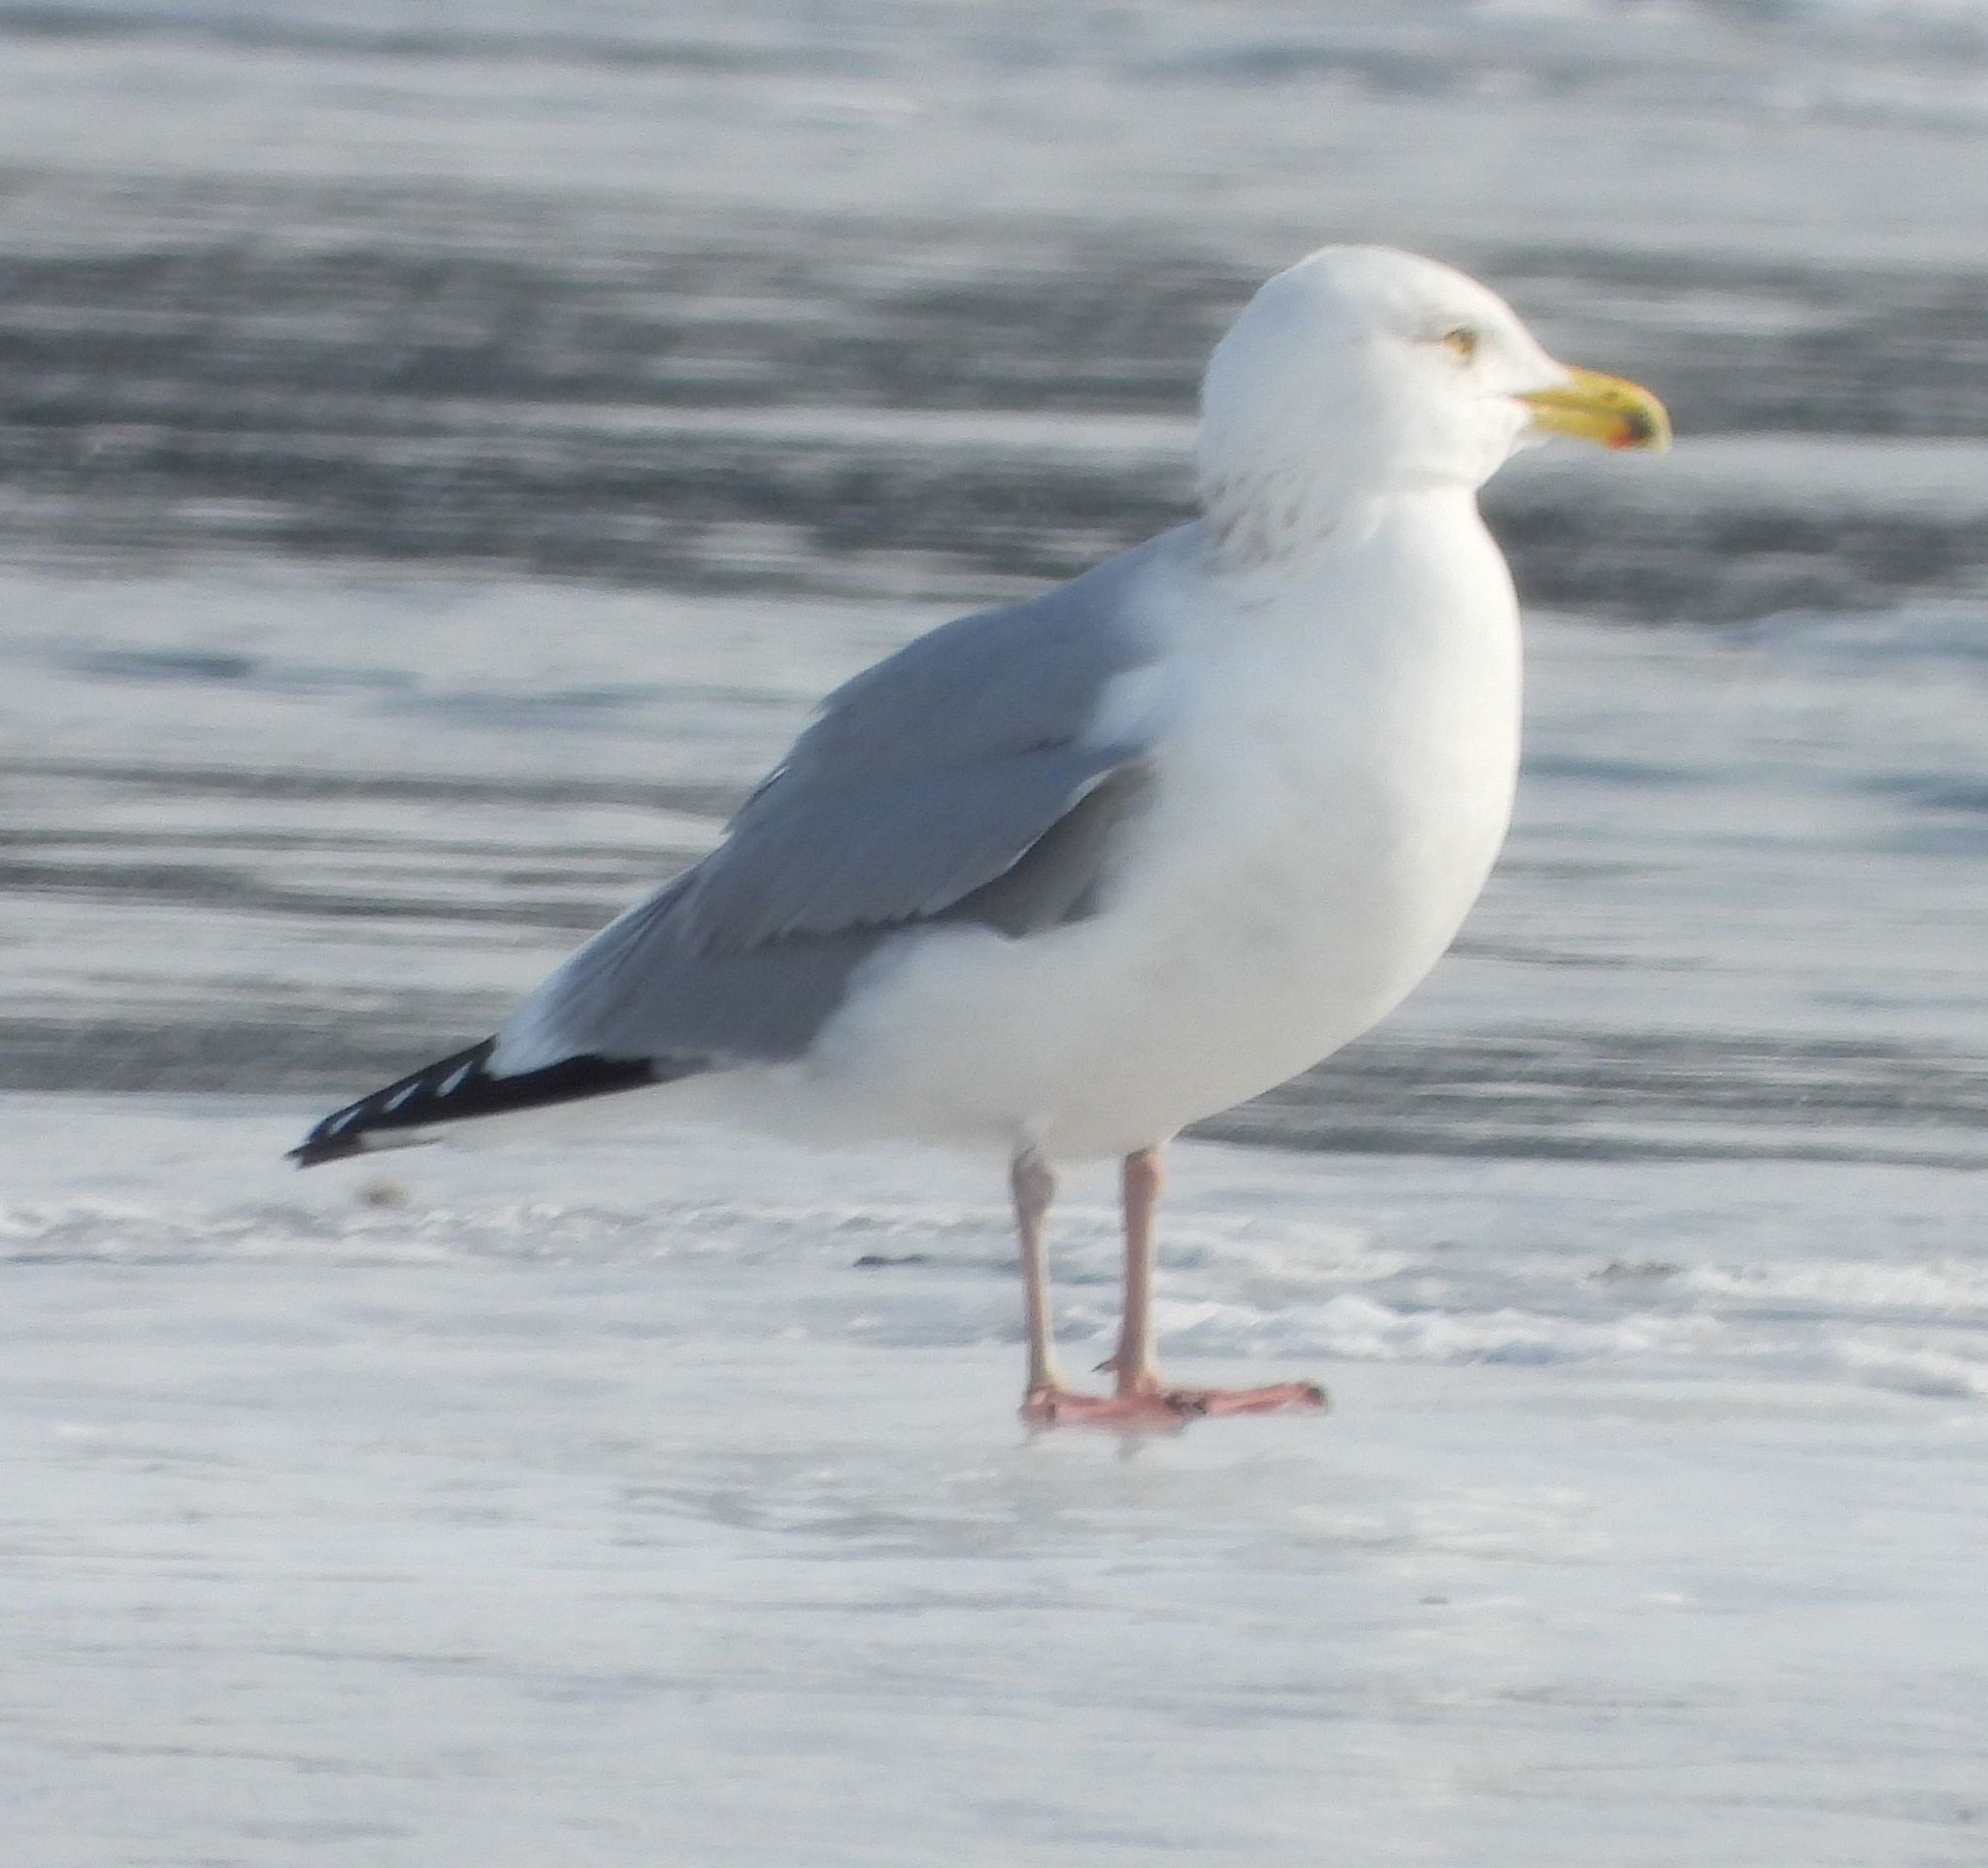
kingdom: Animalia
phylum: Chordata
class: Aves
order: Charadriiformes
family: Laridae
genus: Larus
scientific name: Larus argentatus
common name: Herring gull
